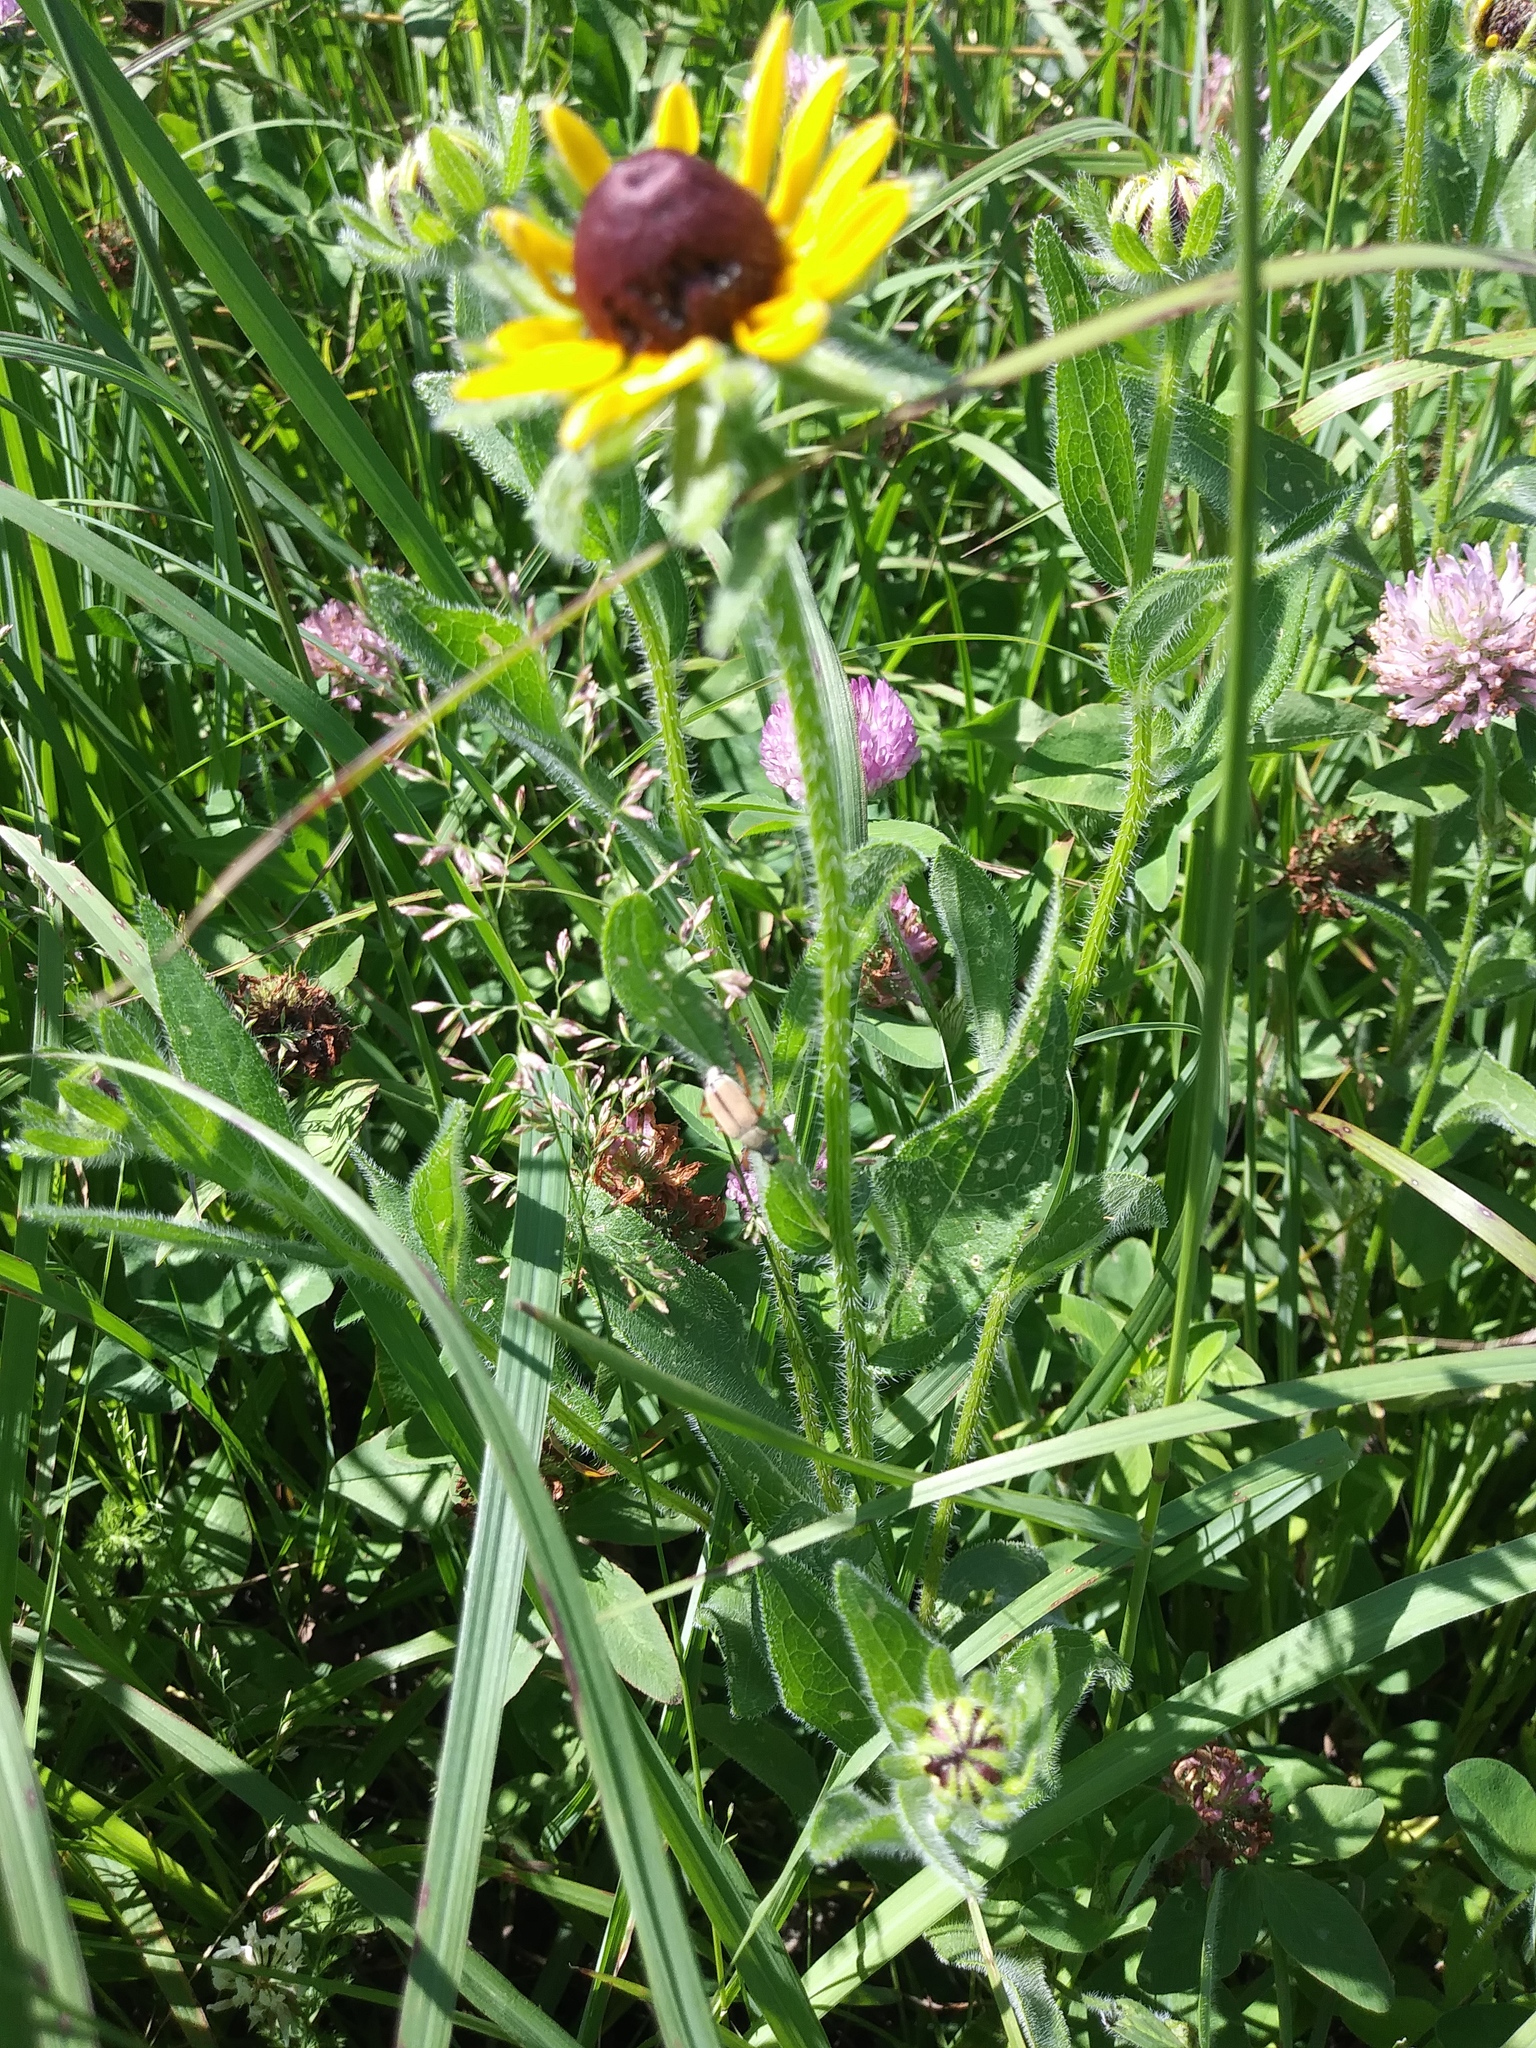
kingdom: Plantae
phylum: Tracheophyta
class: Magnoliopsida
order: Asterales
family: Asteraceae
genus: Rudbeckia
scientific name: Rudbeckia hirta
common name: Black-eyed-susan
